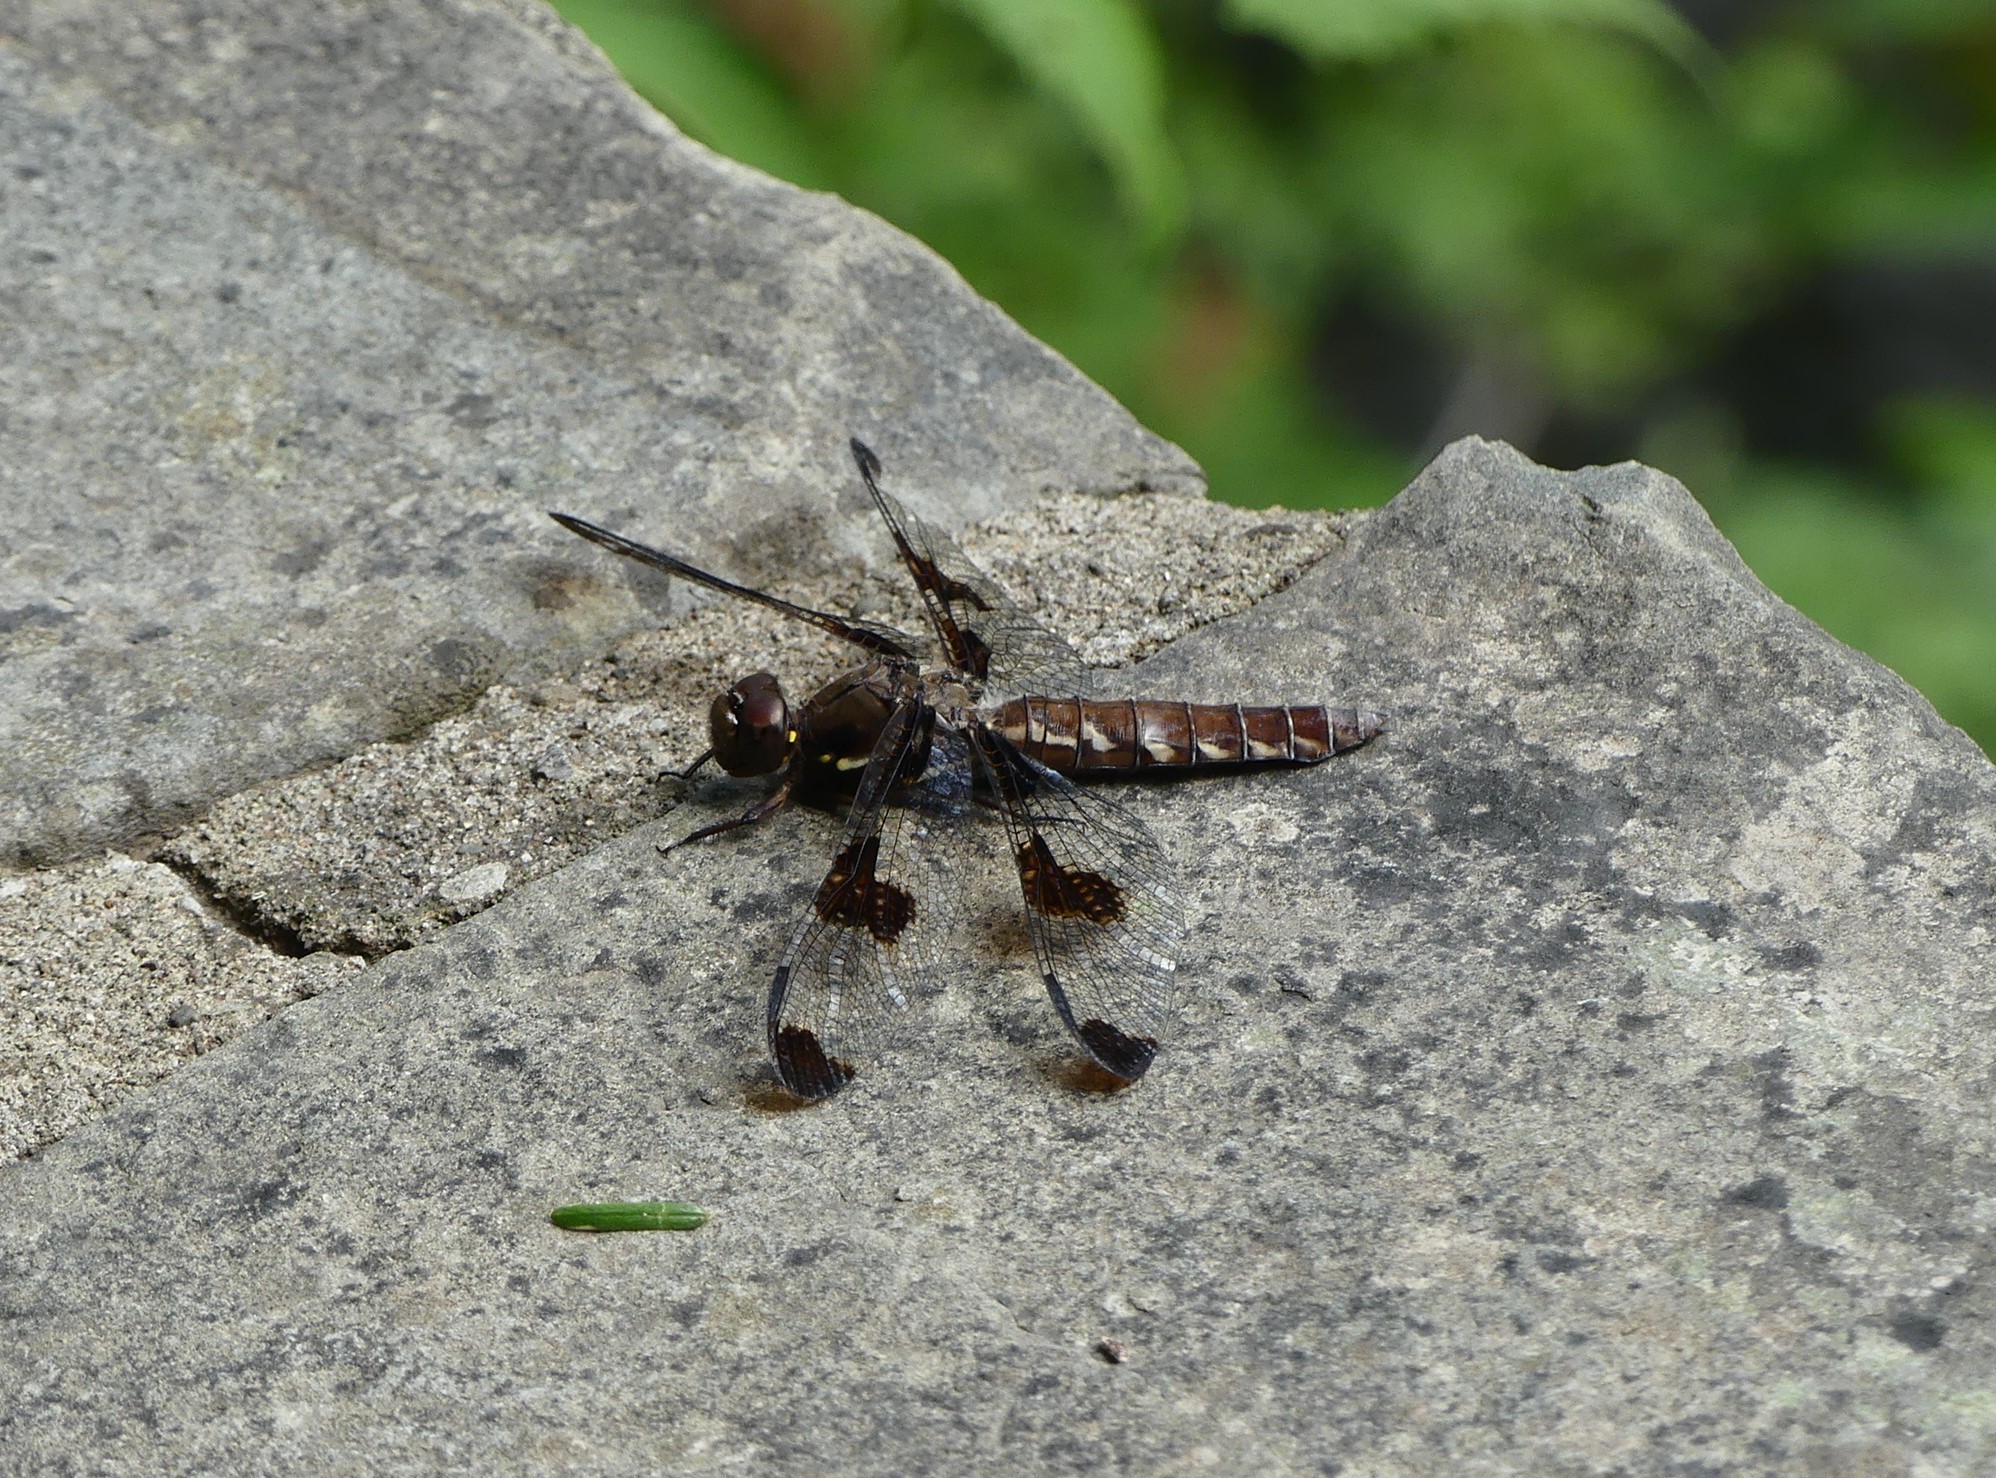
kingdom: Animalia
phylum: Arthropoda
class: Insecta
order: Odonata
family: Libellulidae
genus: Plathemis
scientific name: Plathemis lydia
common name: Common whitetail
